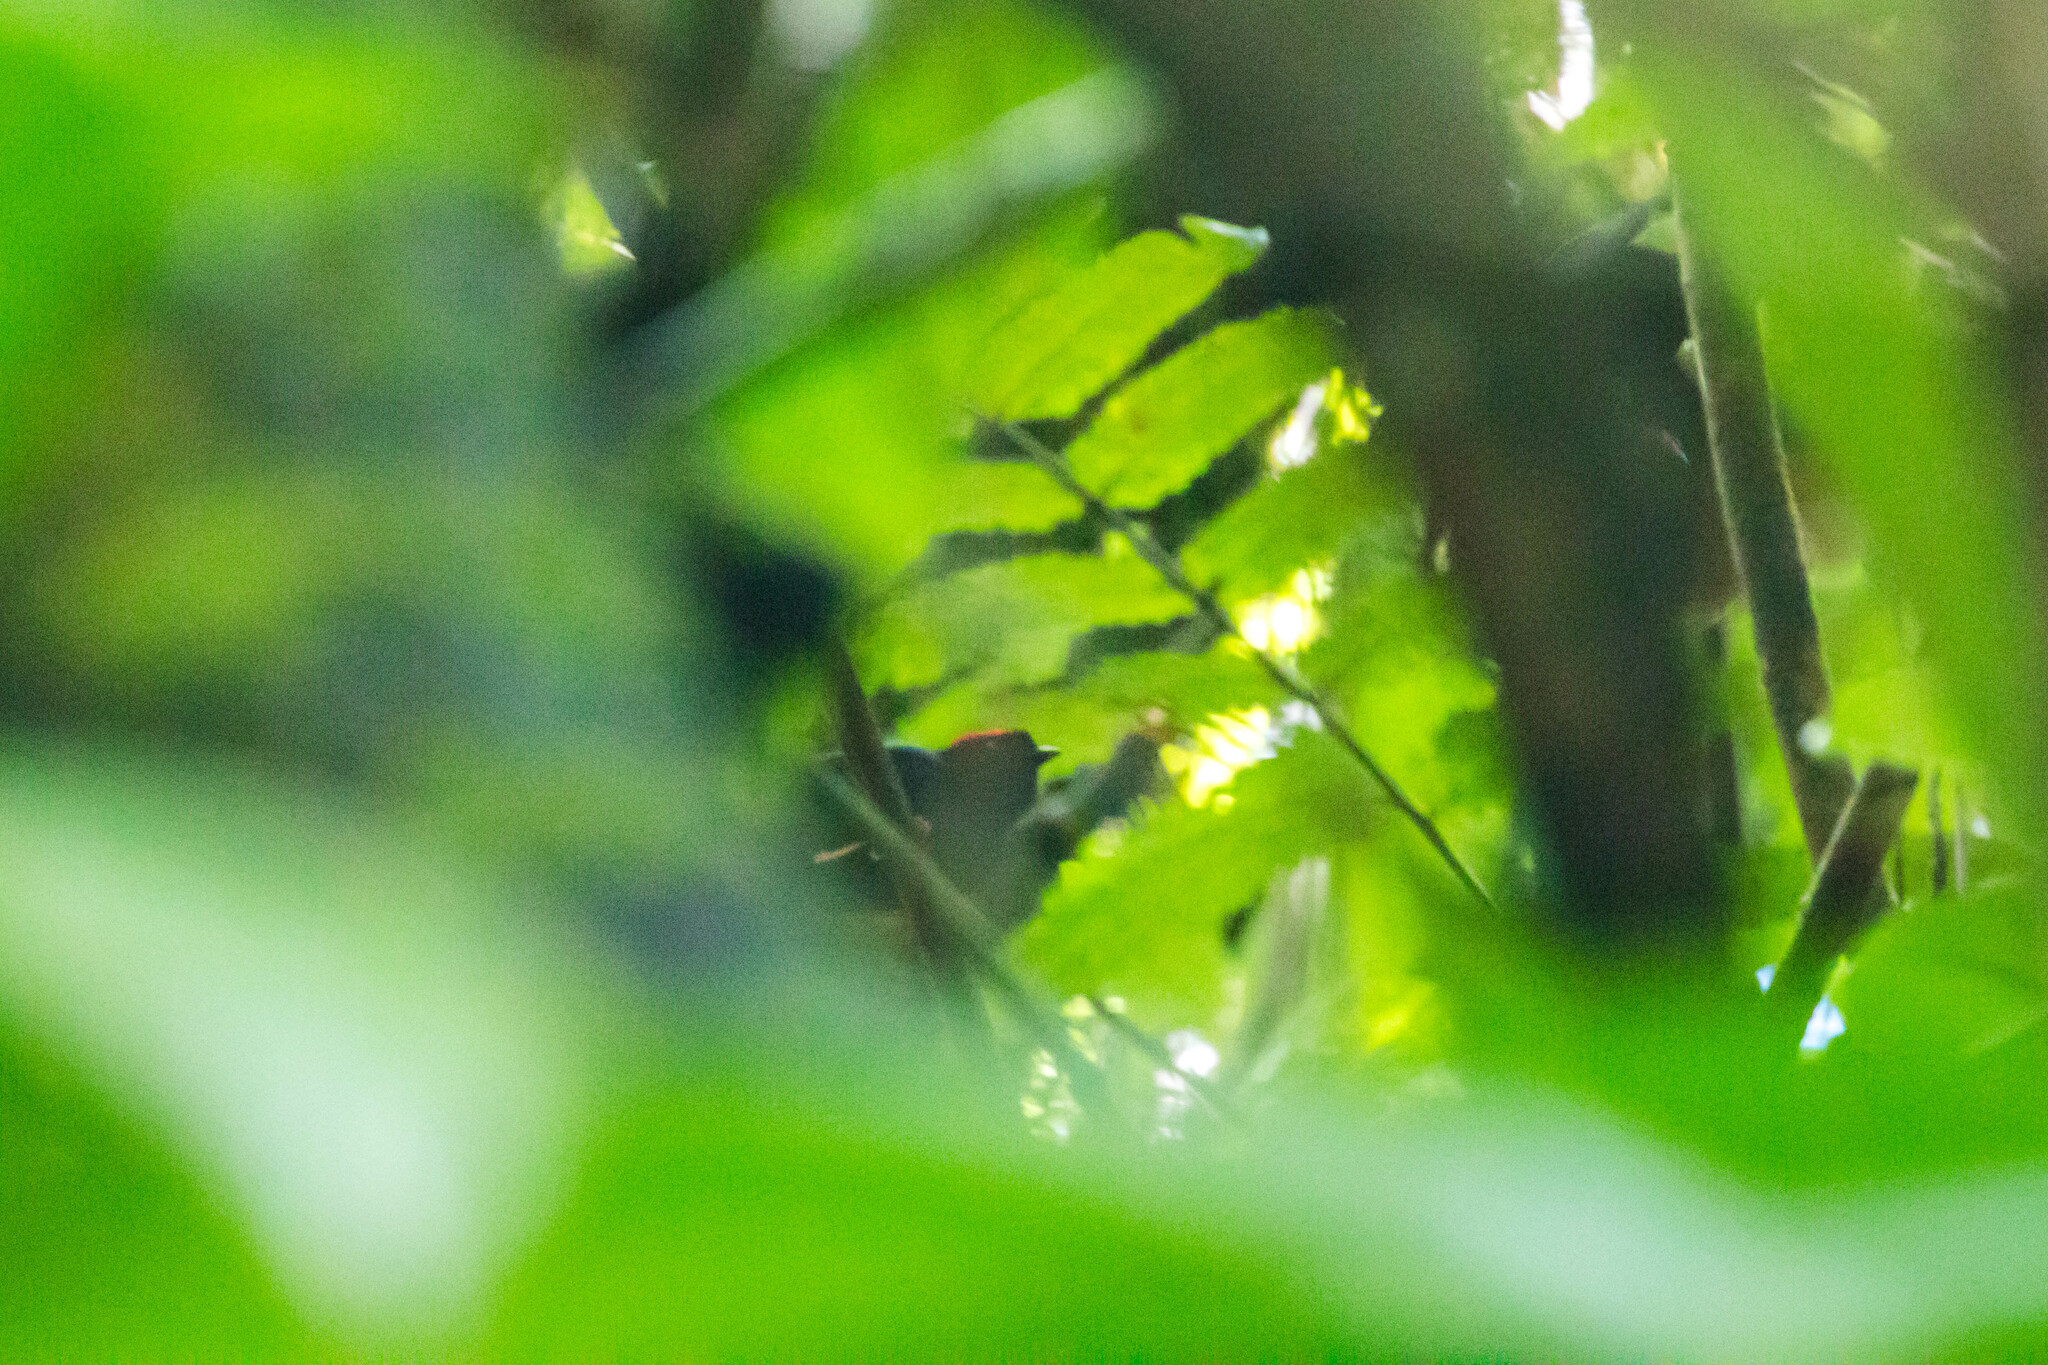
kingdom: Animalia
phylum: Chordata
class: Aves
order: Passeriformes
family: Pipridae
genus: Chiroxiphia
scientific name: Chiroxiphia pareola
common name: Blue-backed manakin
